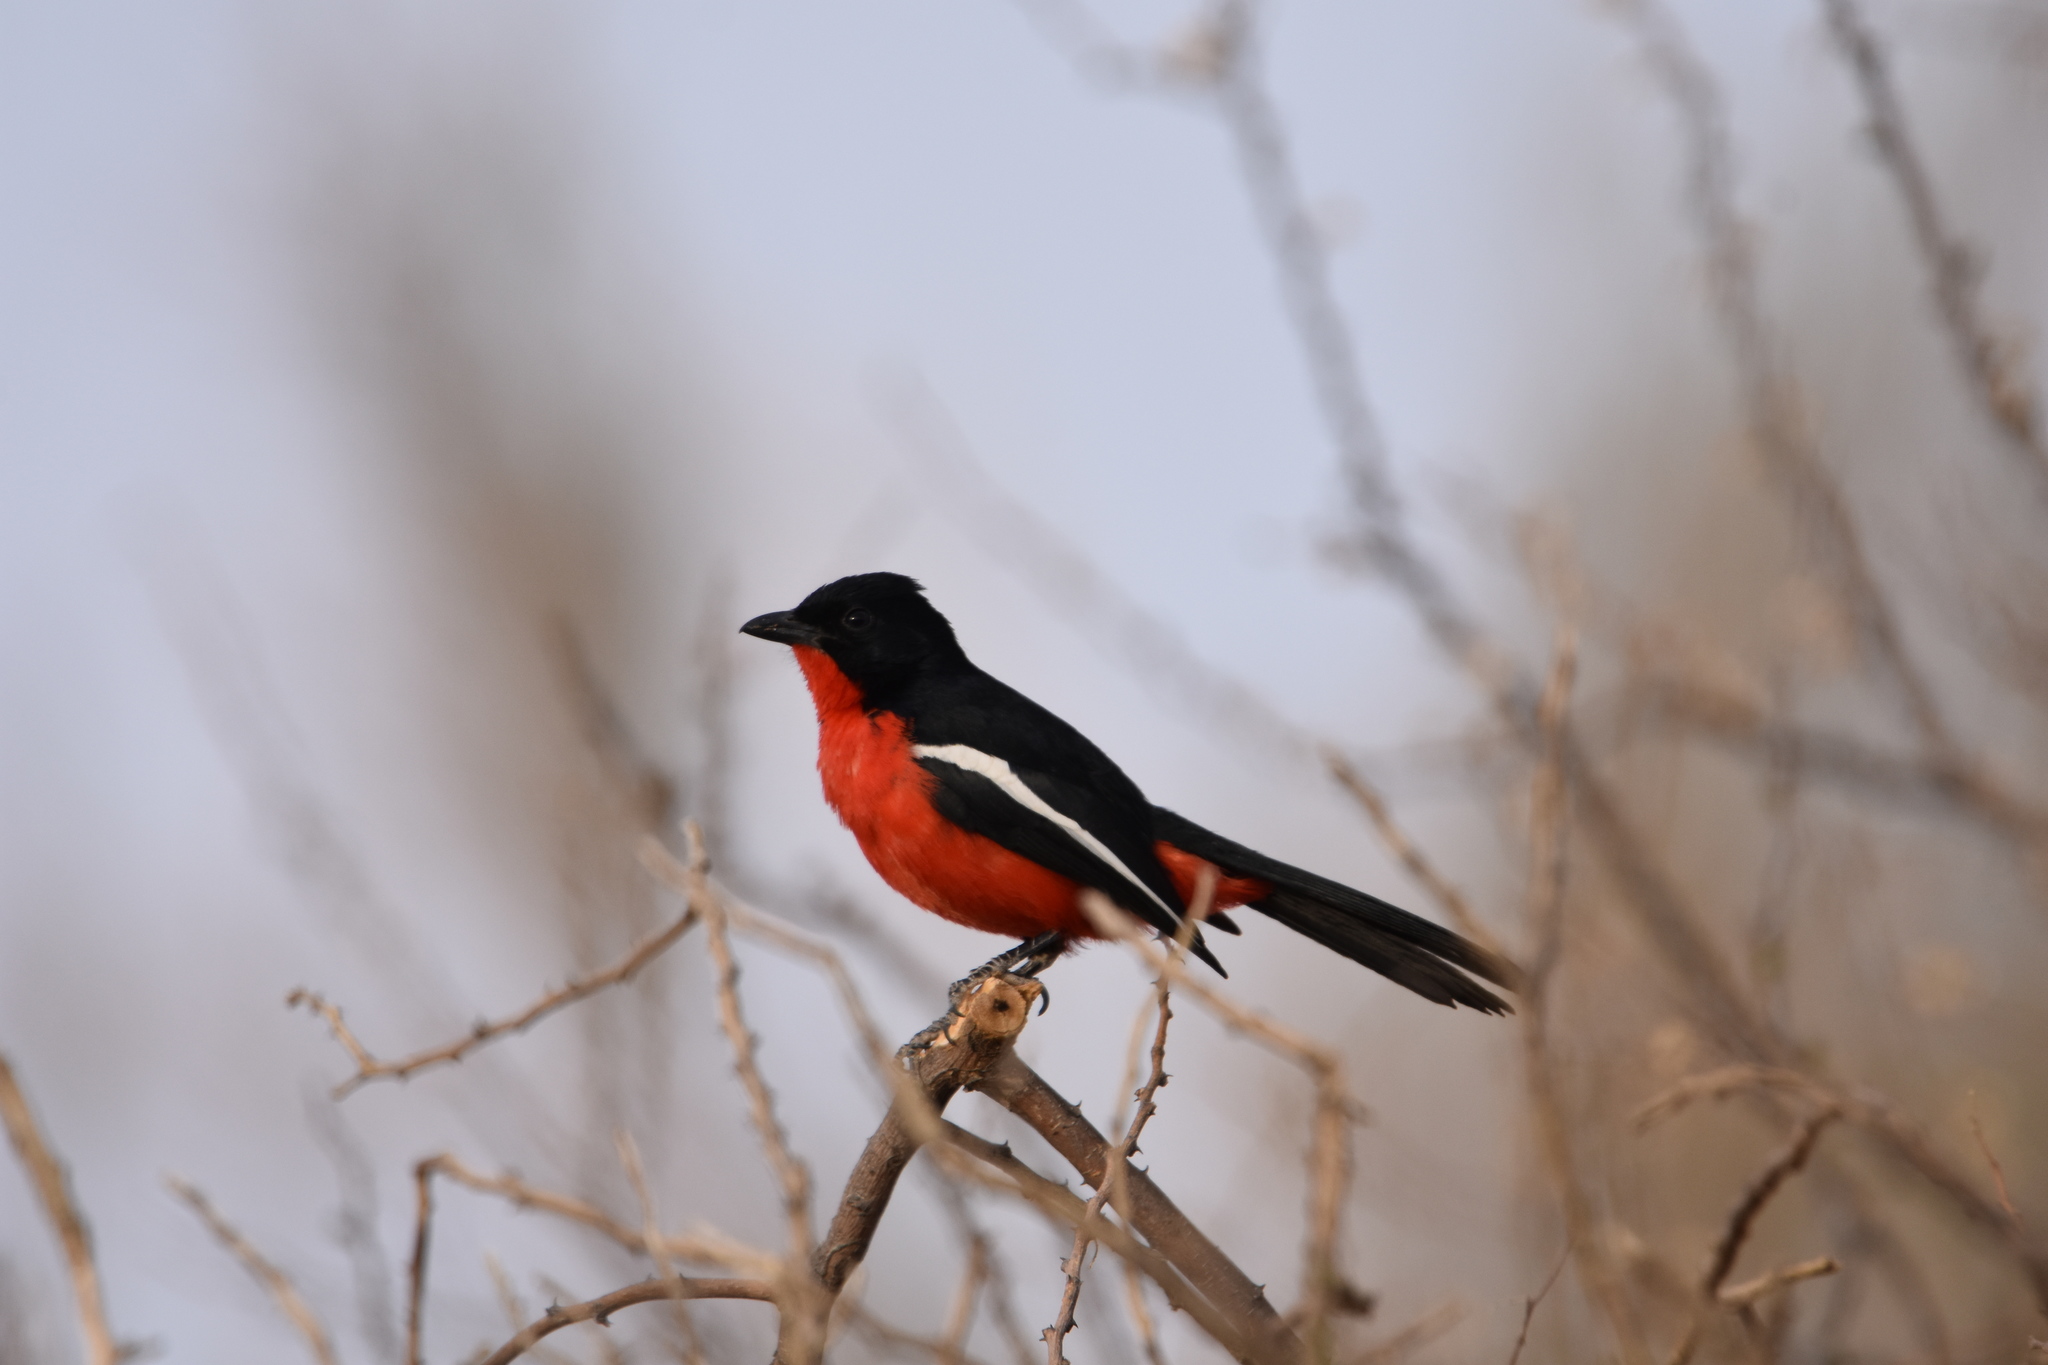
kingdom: Animalia
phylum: Chordata
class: Aves
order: Passeriformes
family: Malaconotidae
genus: Laniarius
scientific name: Laniarius atrococcineus
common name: Crimson-breasted shrike
